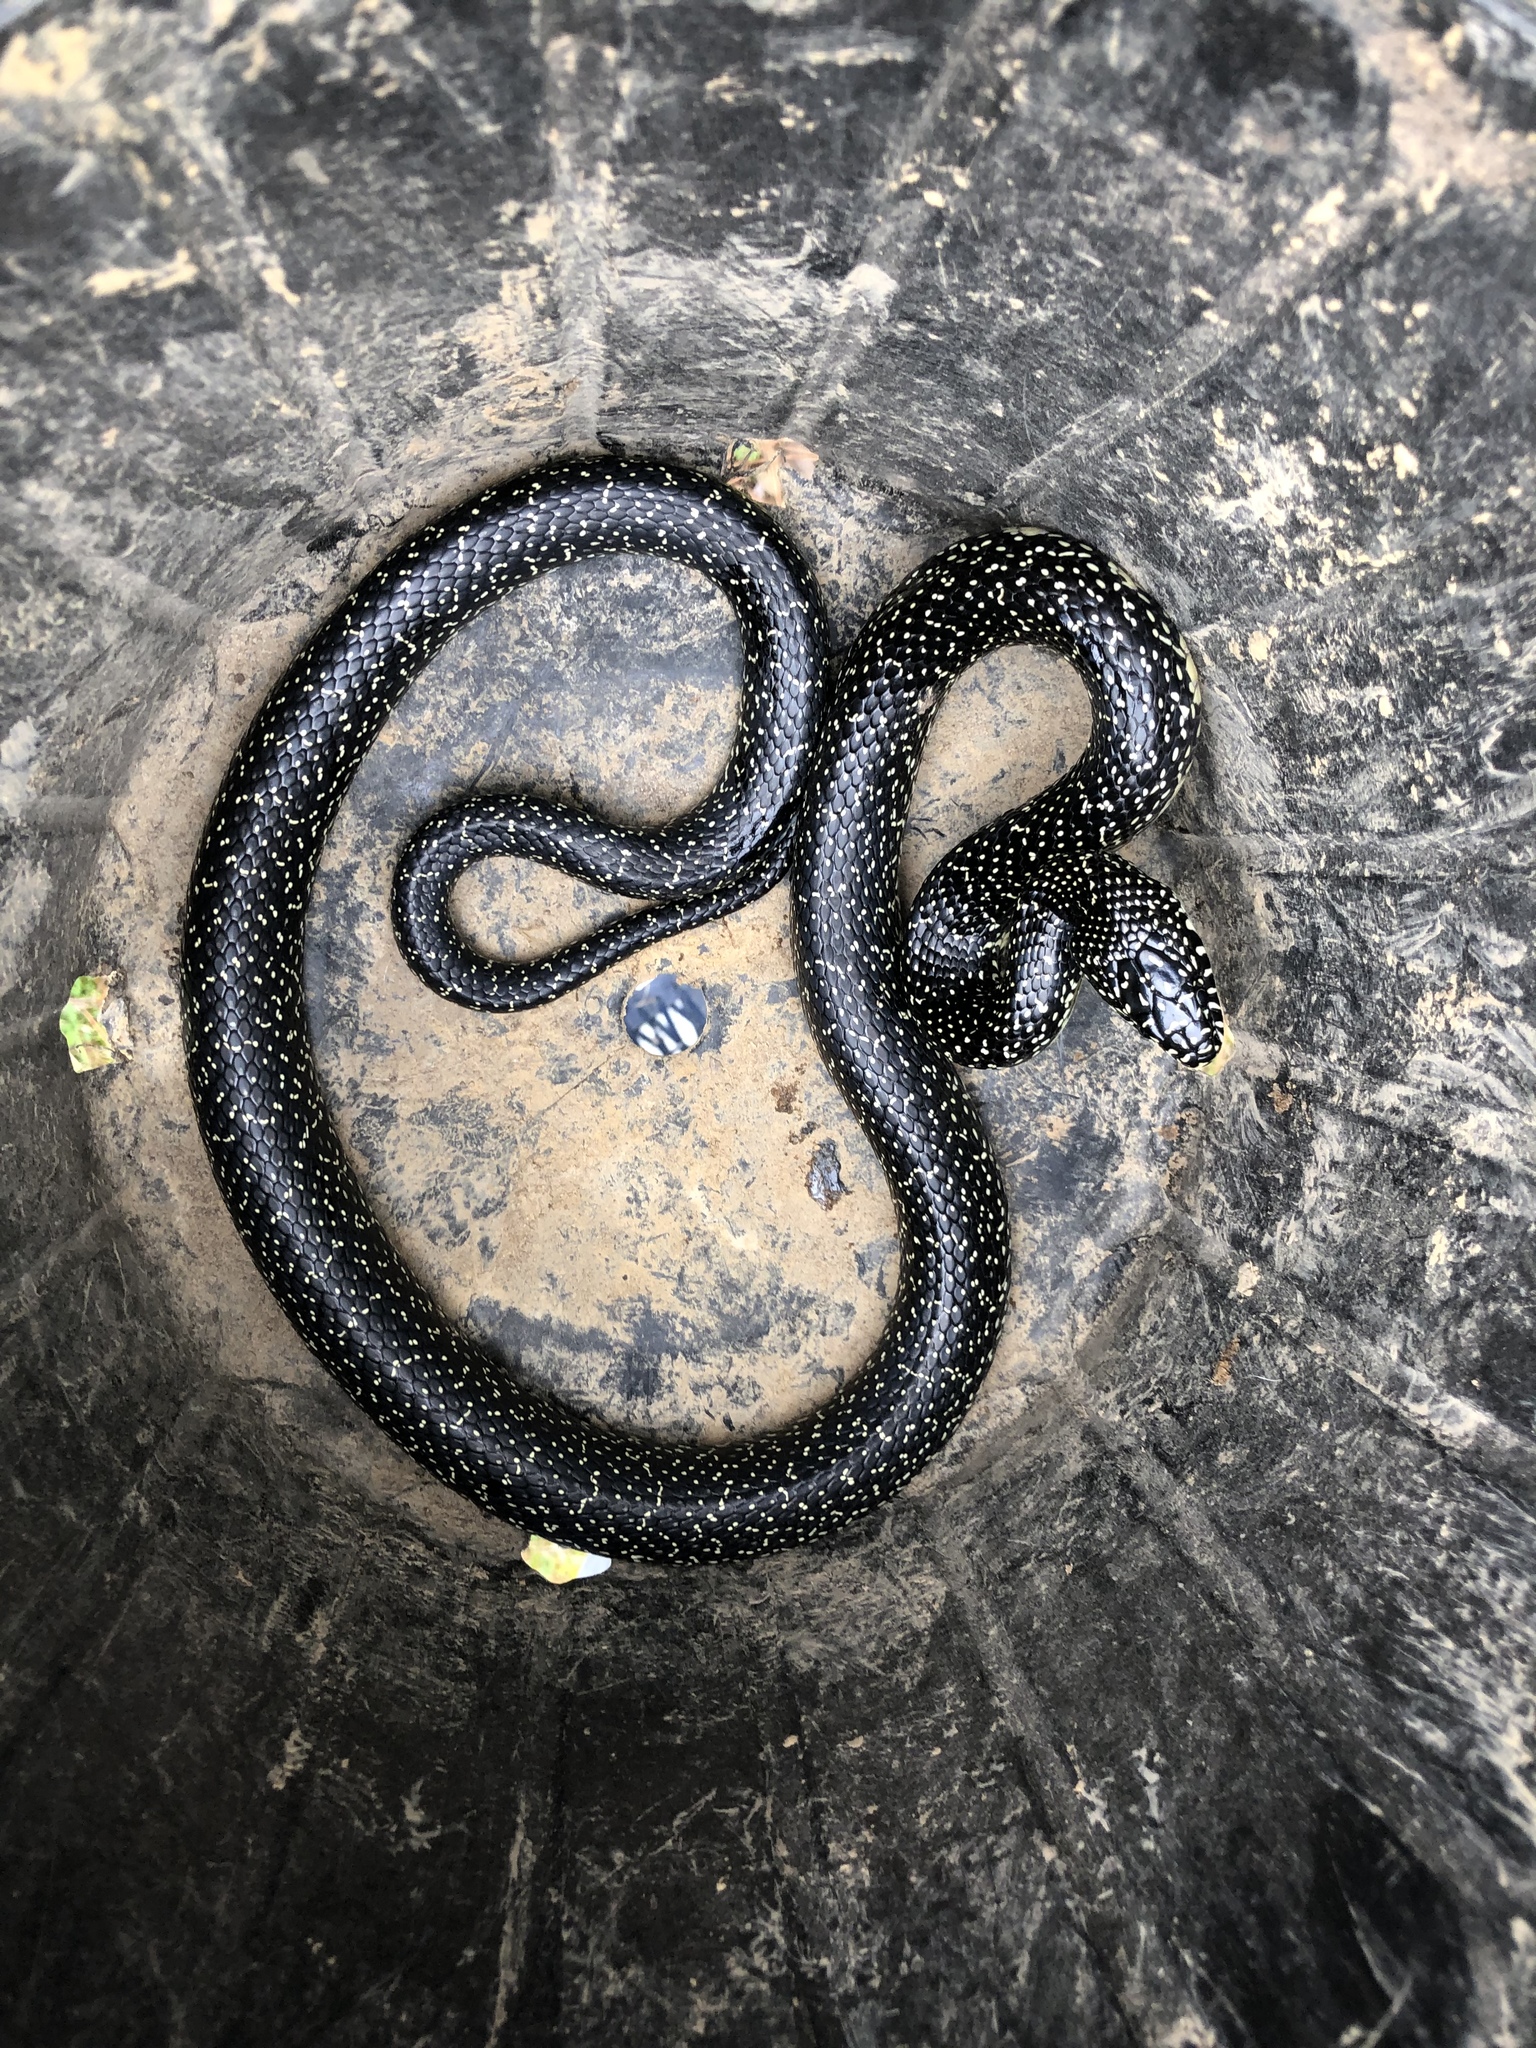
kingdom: Animalia
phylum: Chordata
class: Squamata
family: Colubridae
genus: Lampropeltis
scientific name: Lampropeltis holbrooki
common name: Speckled kingsnake
